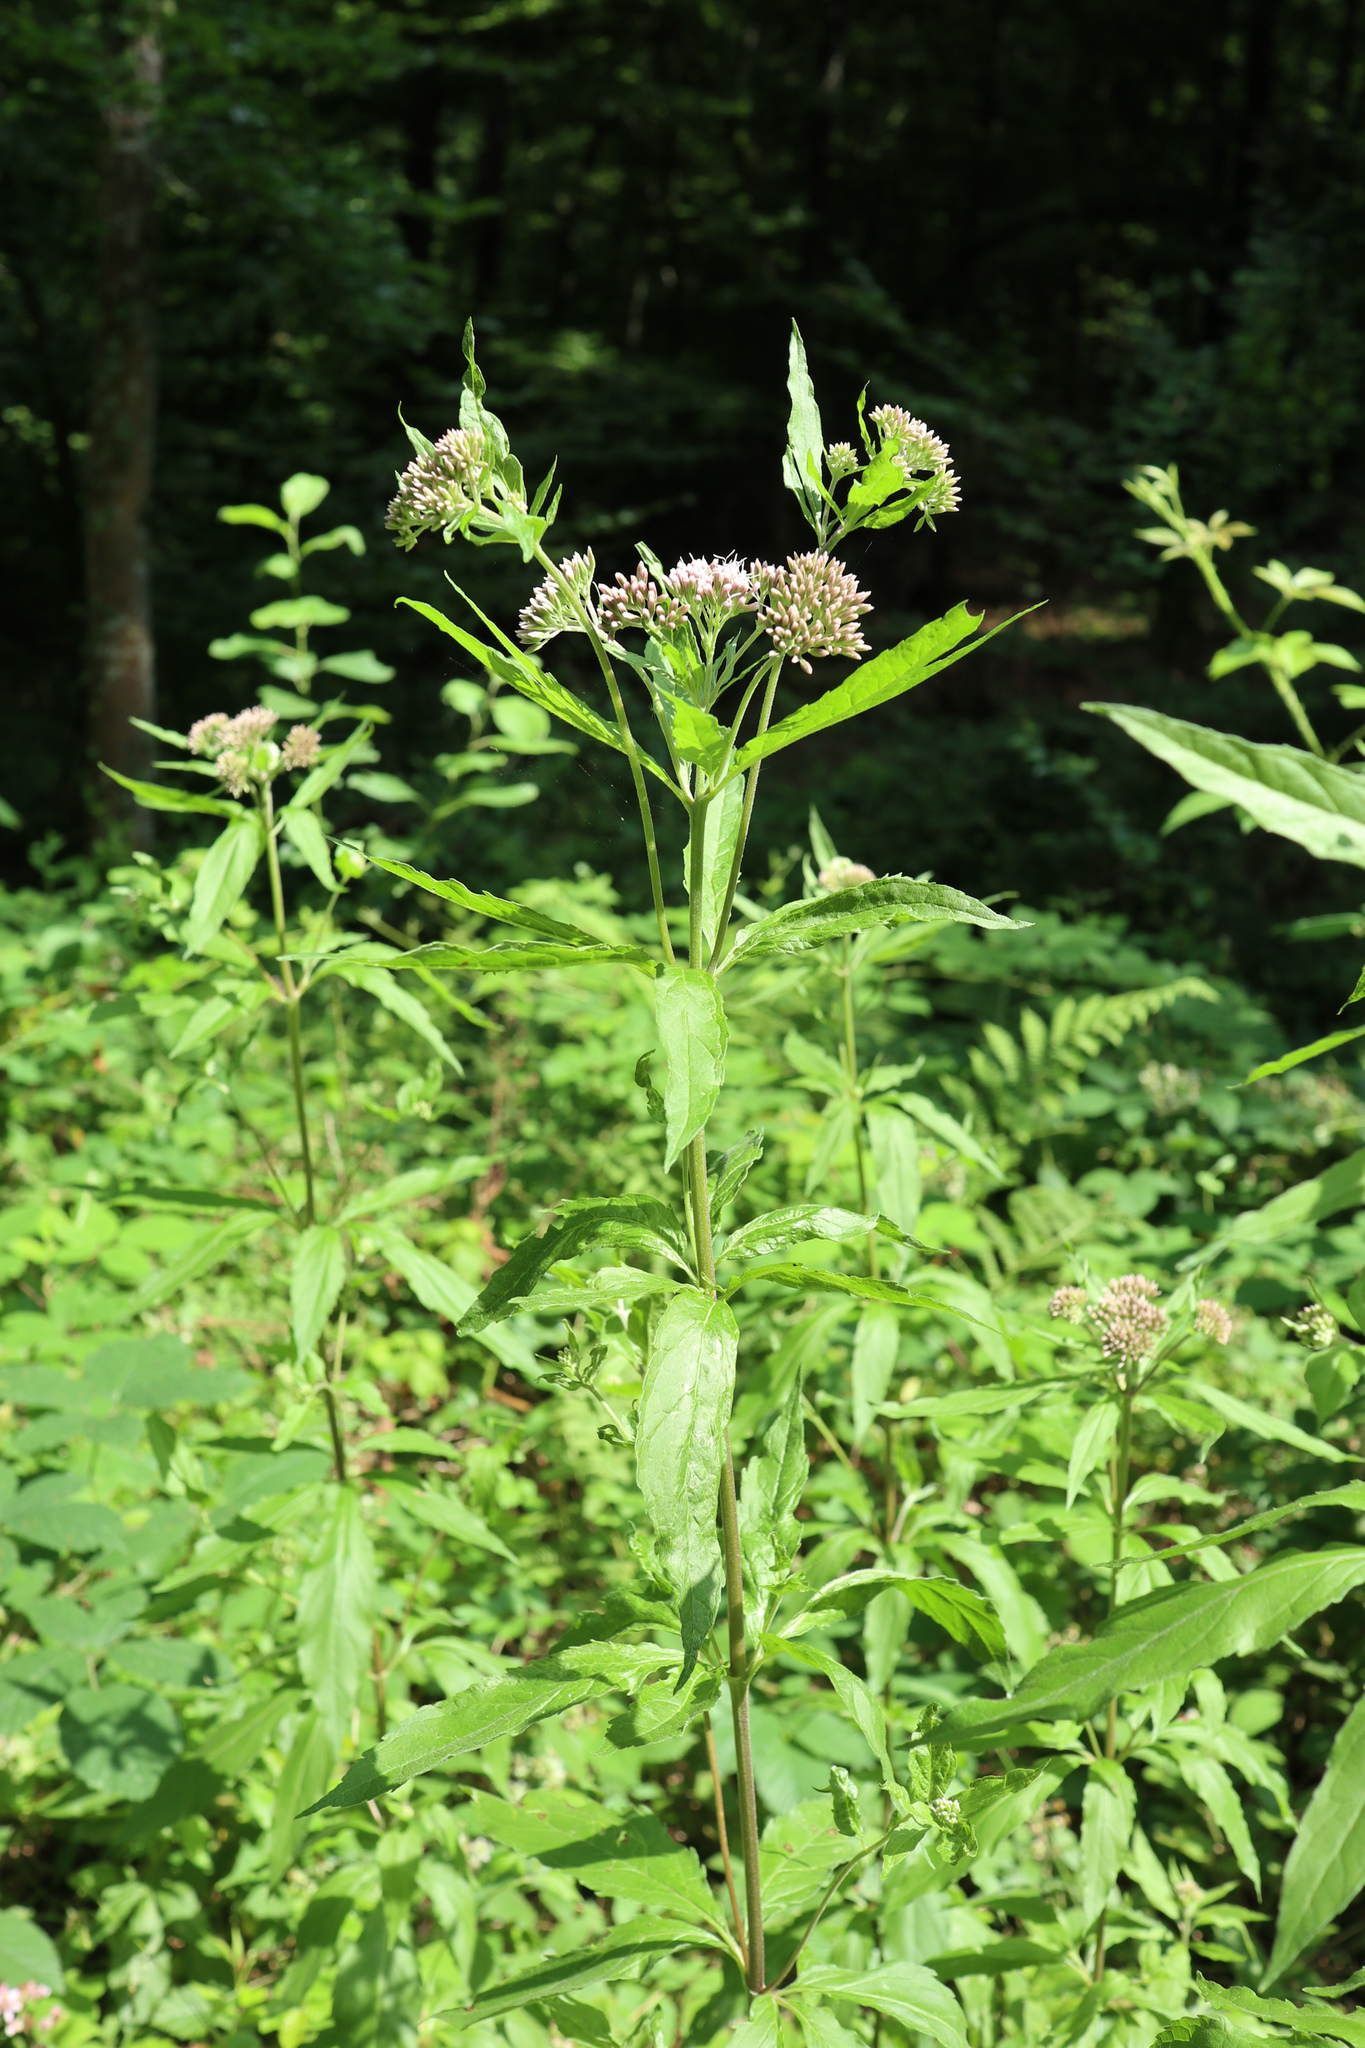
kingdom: Plantae
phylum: Tracheophyta
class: Magnoliopsida
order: Asterales
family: Asteraceae
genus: Eupatorium
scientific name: Eupatorium cannabinum
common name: Hemp-agrimony
